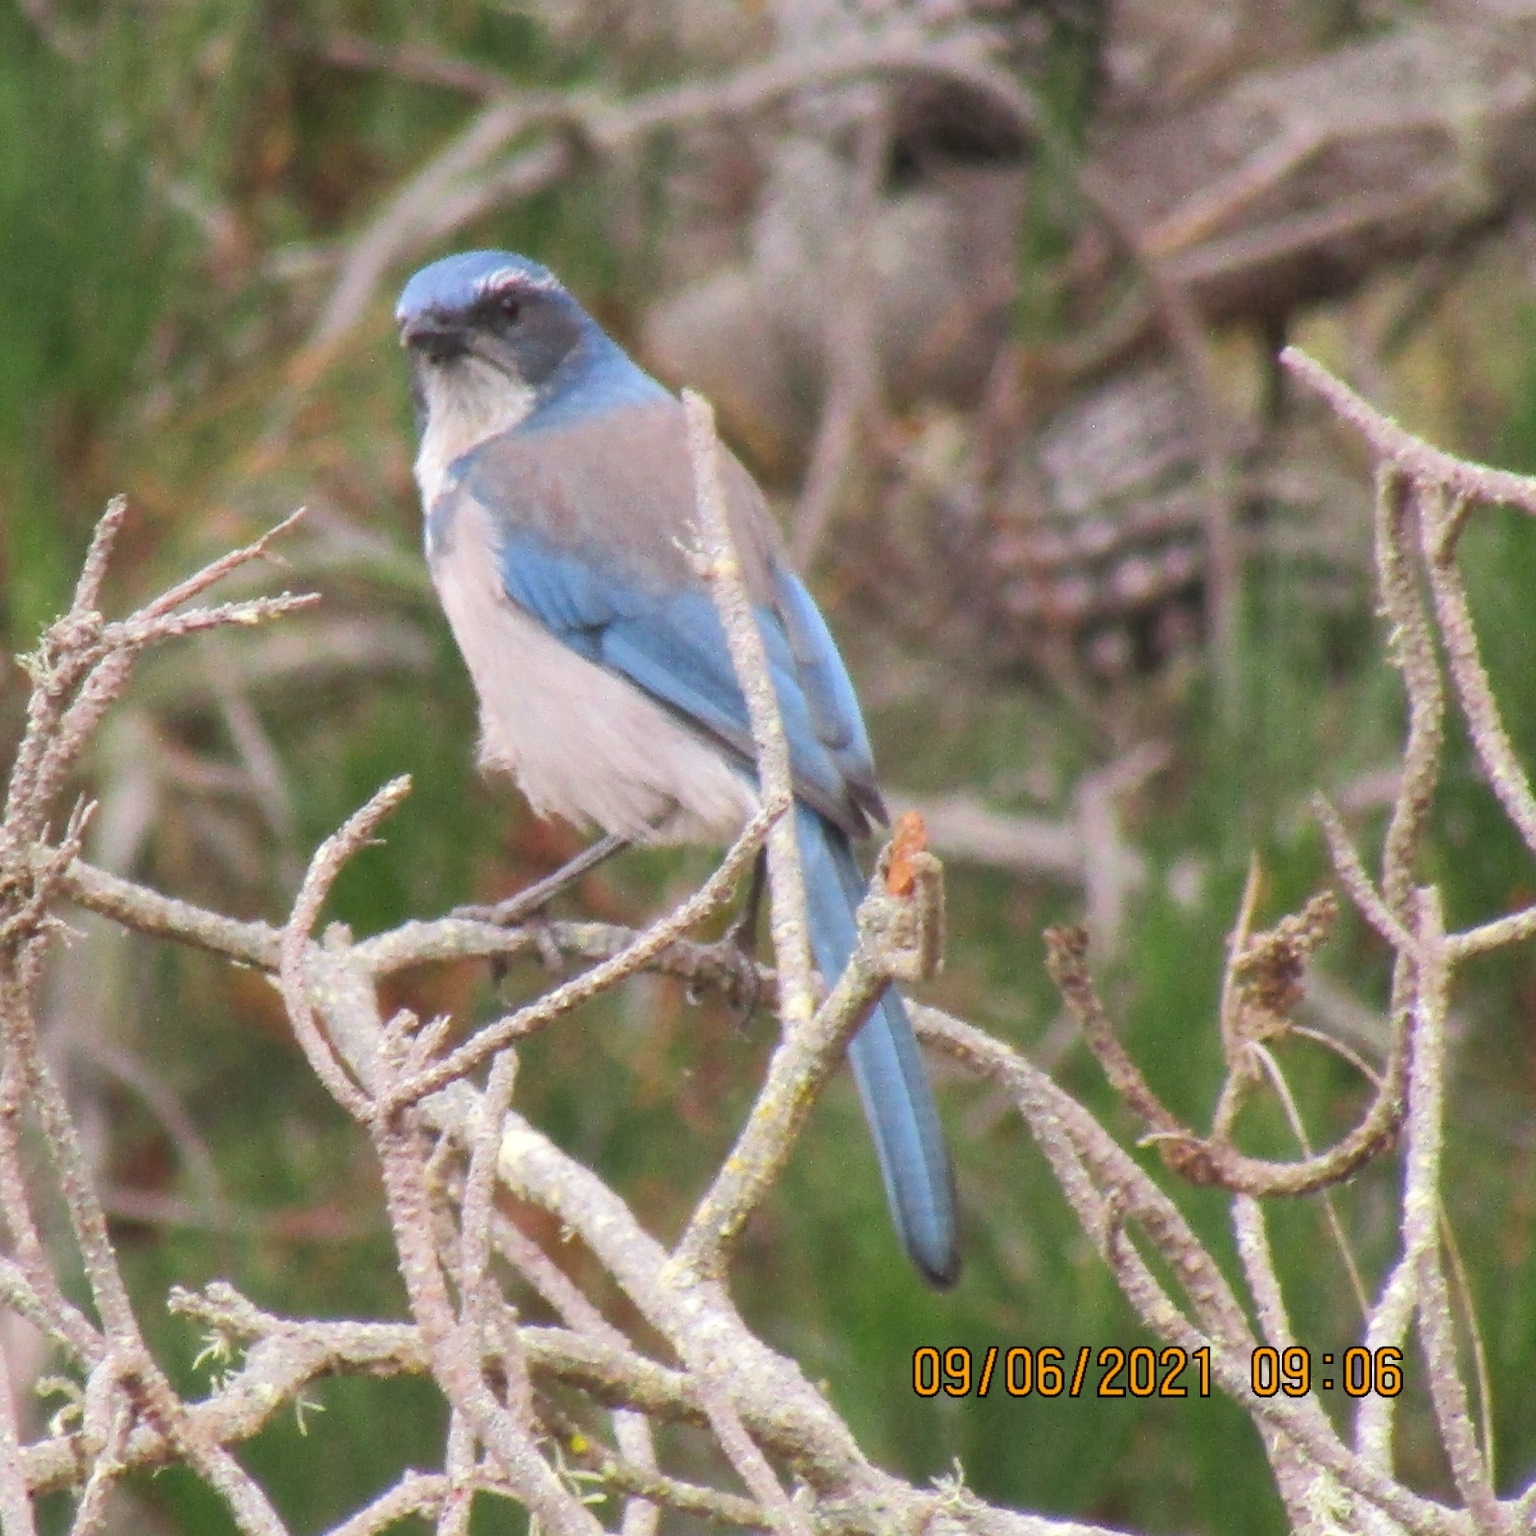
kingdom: Animalia
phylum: Chordata
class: Aves
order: Passeriformes
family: Corvidae
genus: Aphelocoma
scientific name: Aphelocoma californica
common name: California scrub-jay
